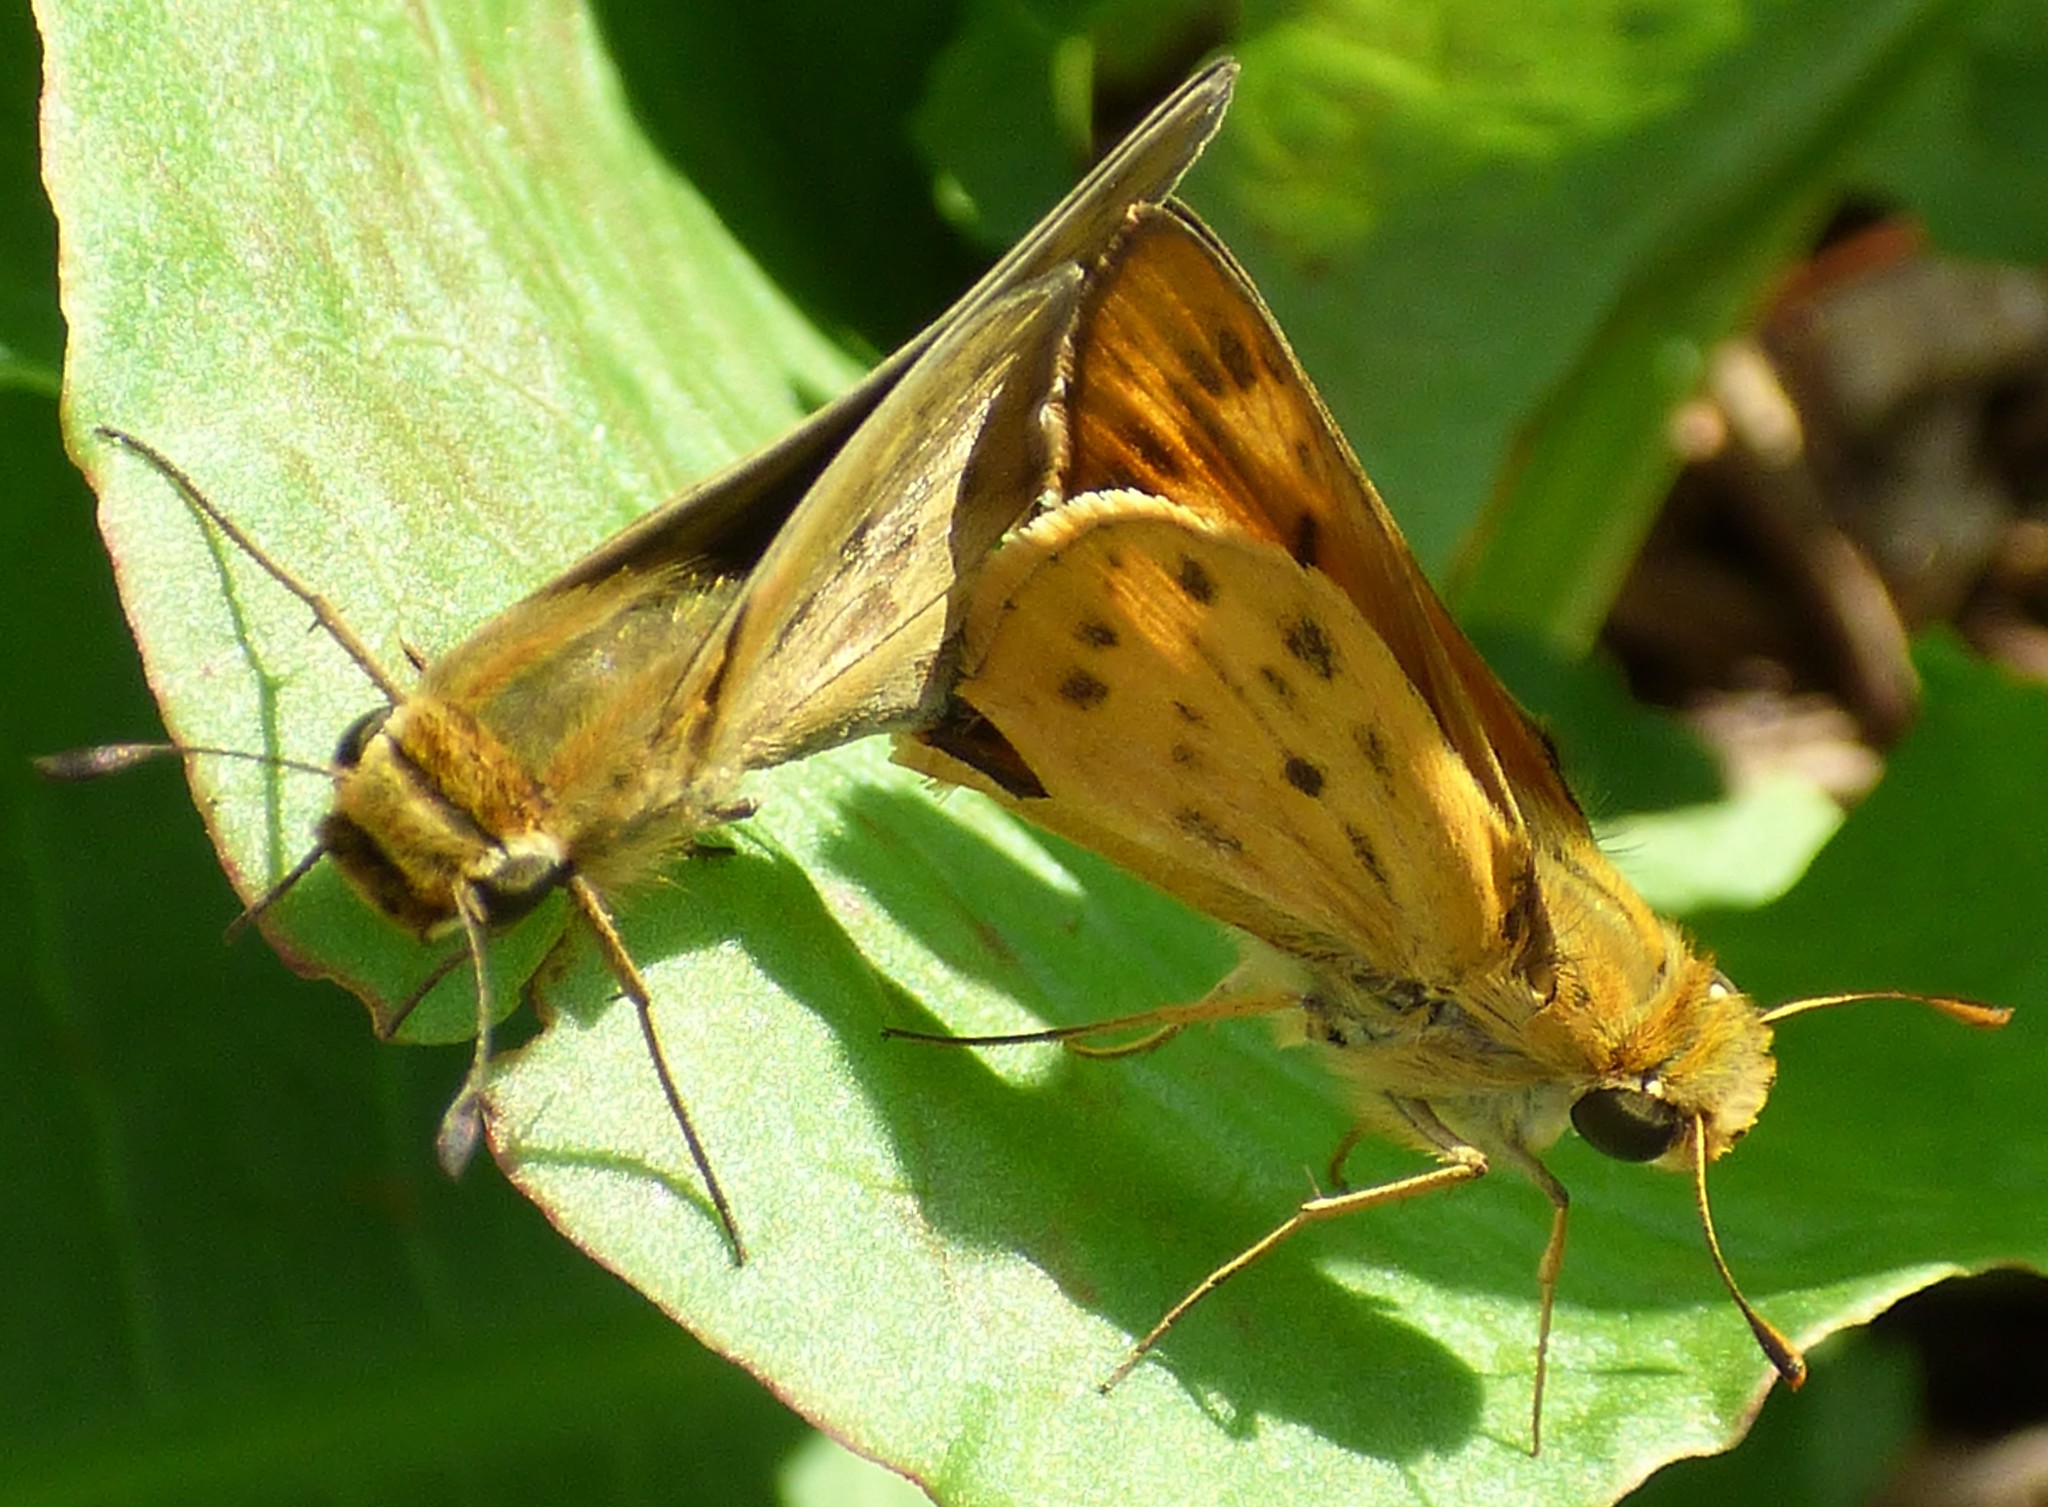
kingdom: Animalia
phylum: Arthropoda
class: Insecta
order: Lepidoptera
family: Hesperiidae
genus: Hylephila
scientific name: Hylephila phyleus
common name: Fiery skipper
